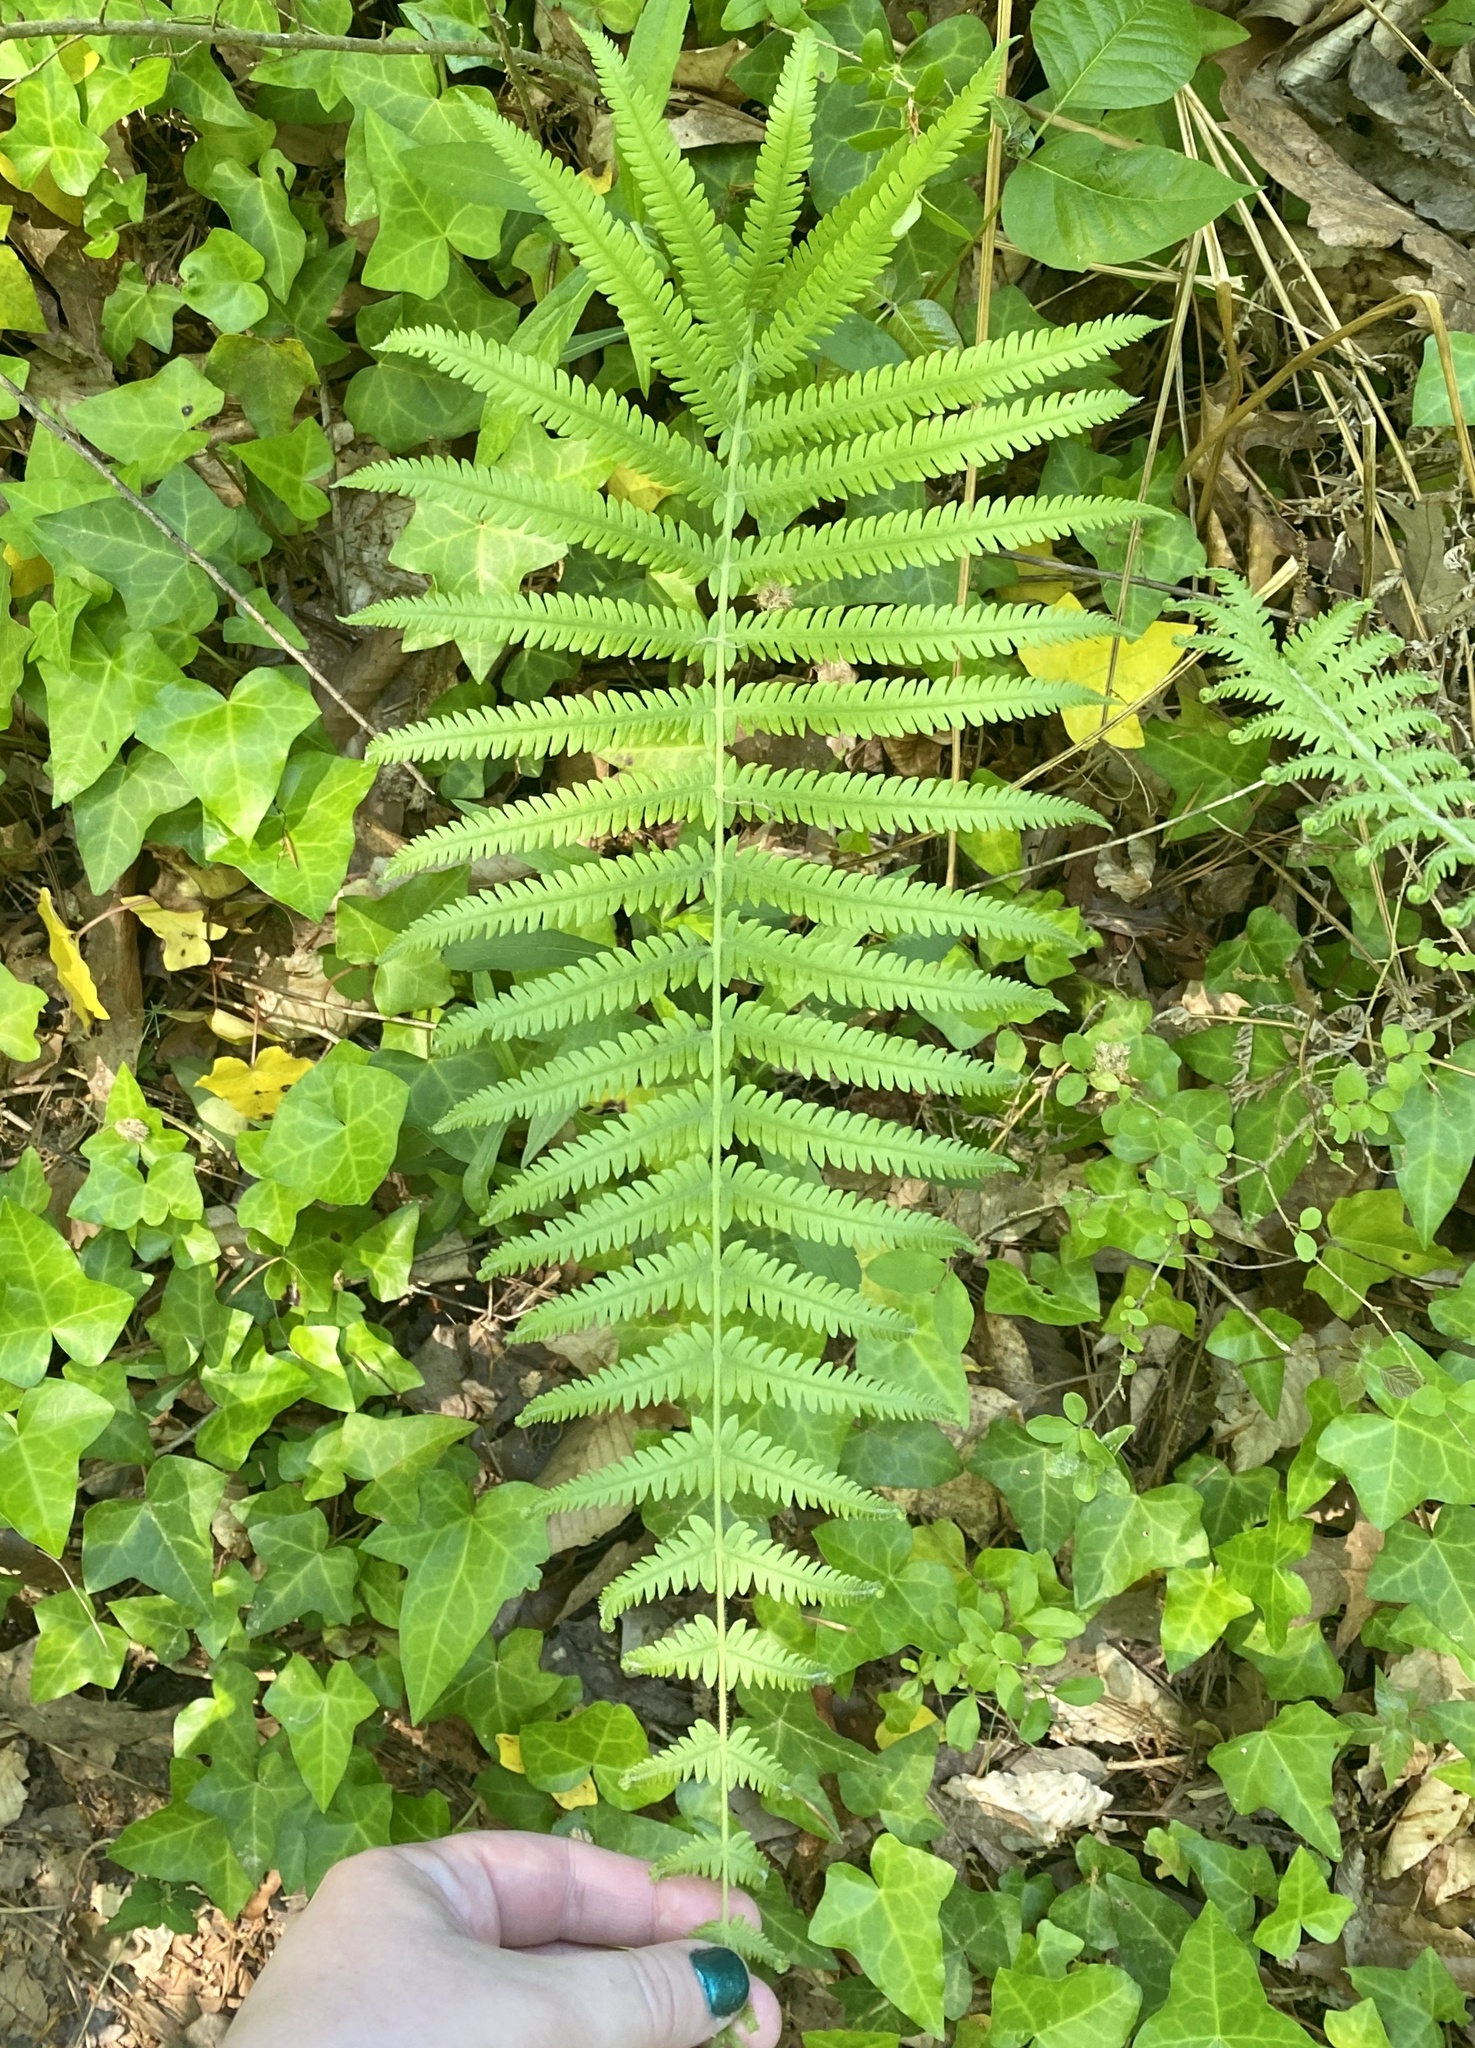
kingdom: Plantae
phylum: Tracheophyta
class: Polypodiopsida
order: Polypodiales
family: Thelypteridaceae
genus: Pelazoneuron
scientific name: Pelazoneuron kunthii
